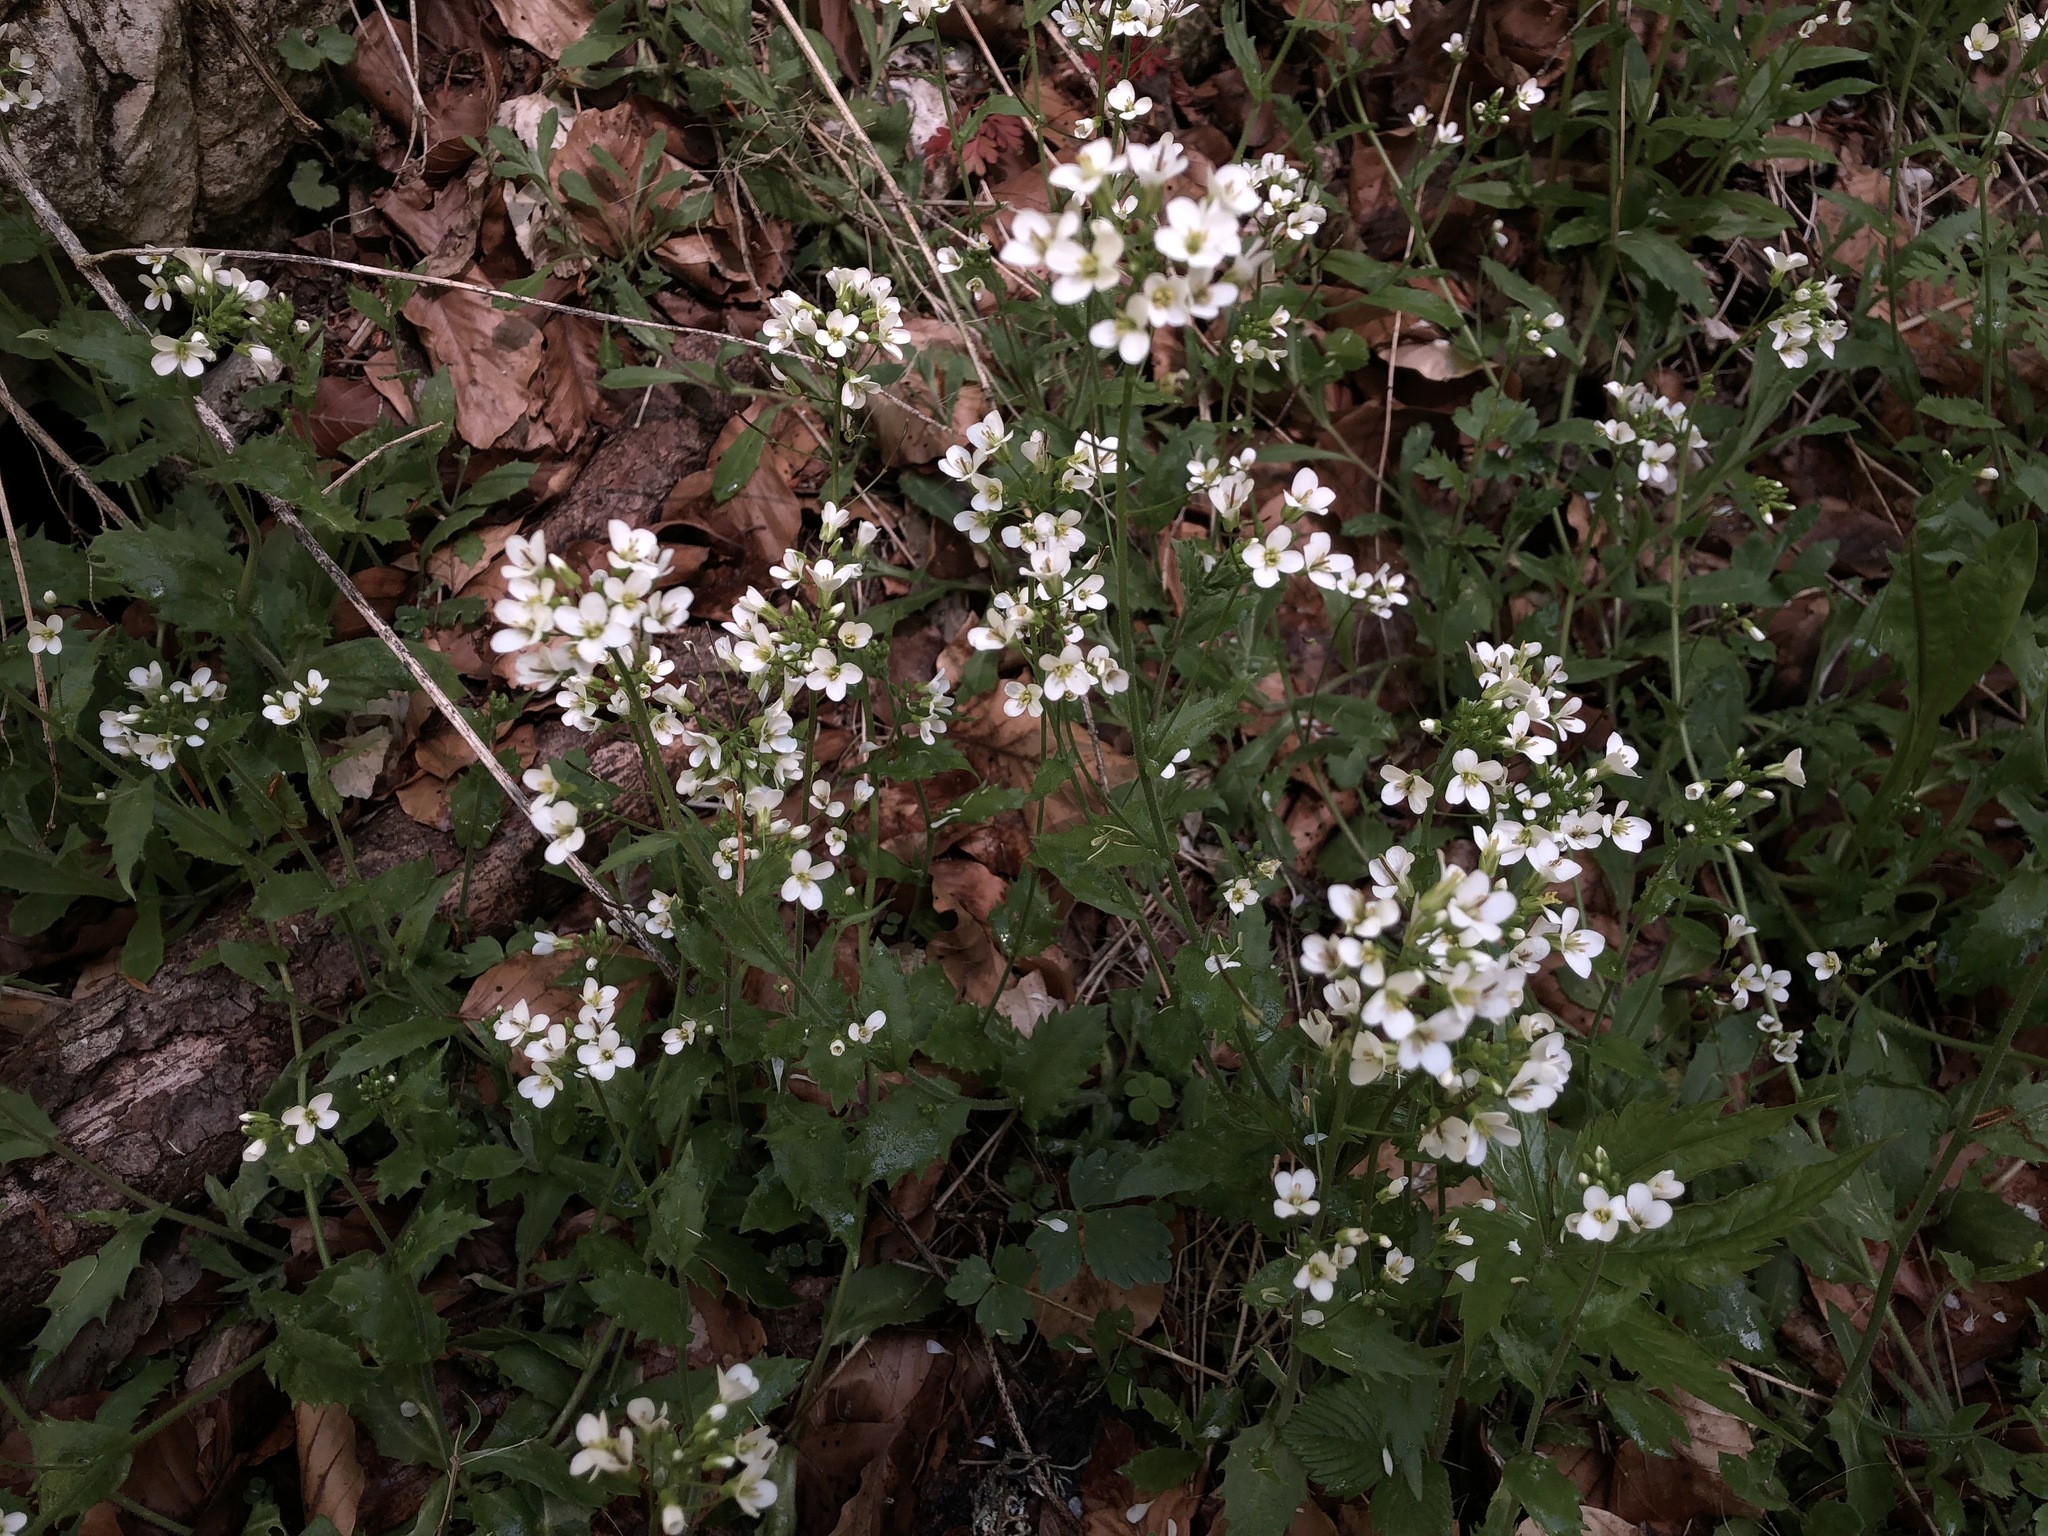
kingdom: Plantae
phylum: Tracheophyta
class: Magnoliopsida
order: Brassicales
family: Brassicaceae
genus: Arabis
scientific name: Arabis alpina
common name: Alpine rock-cress
